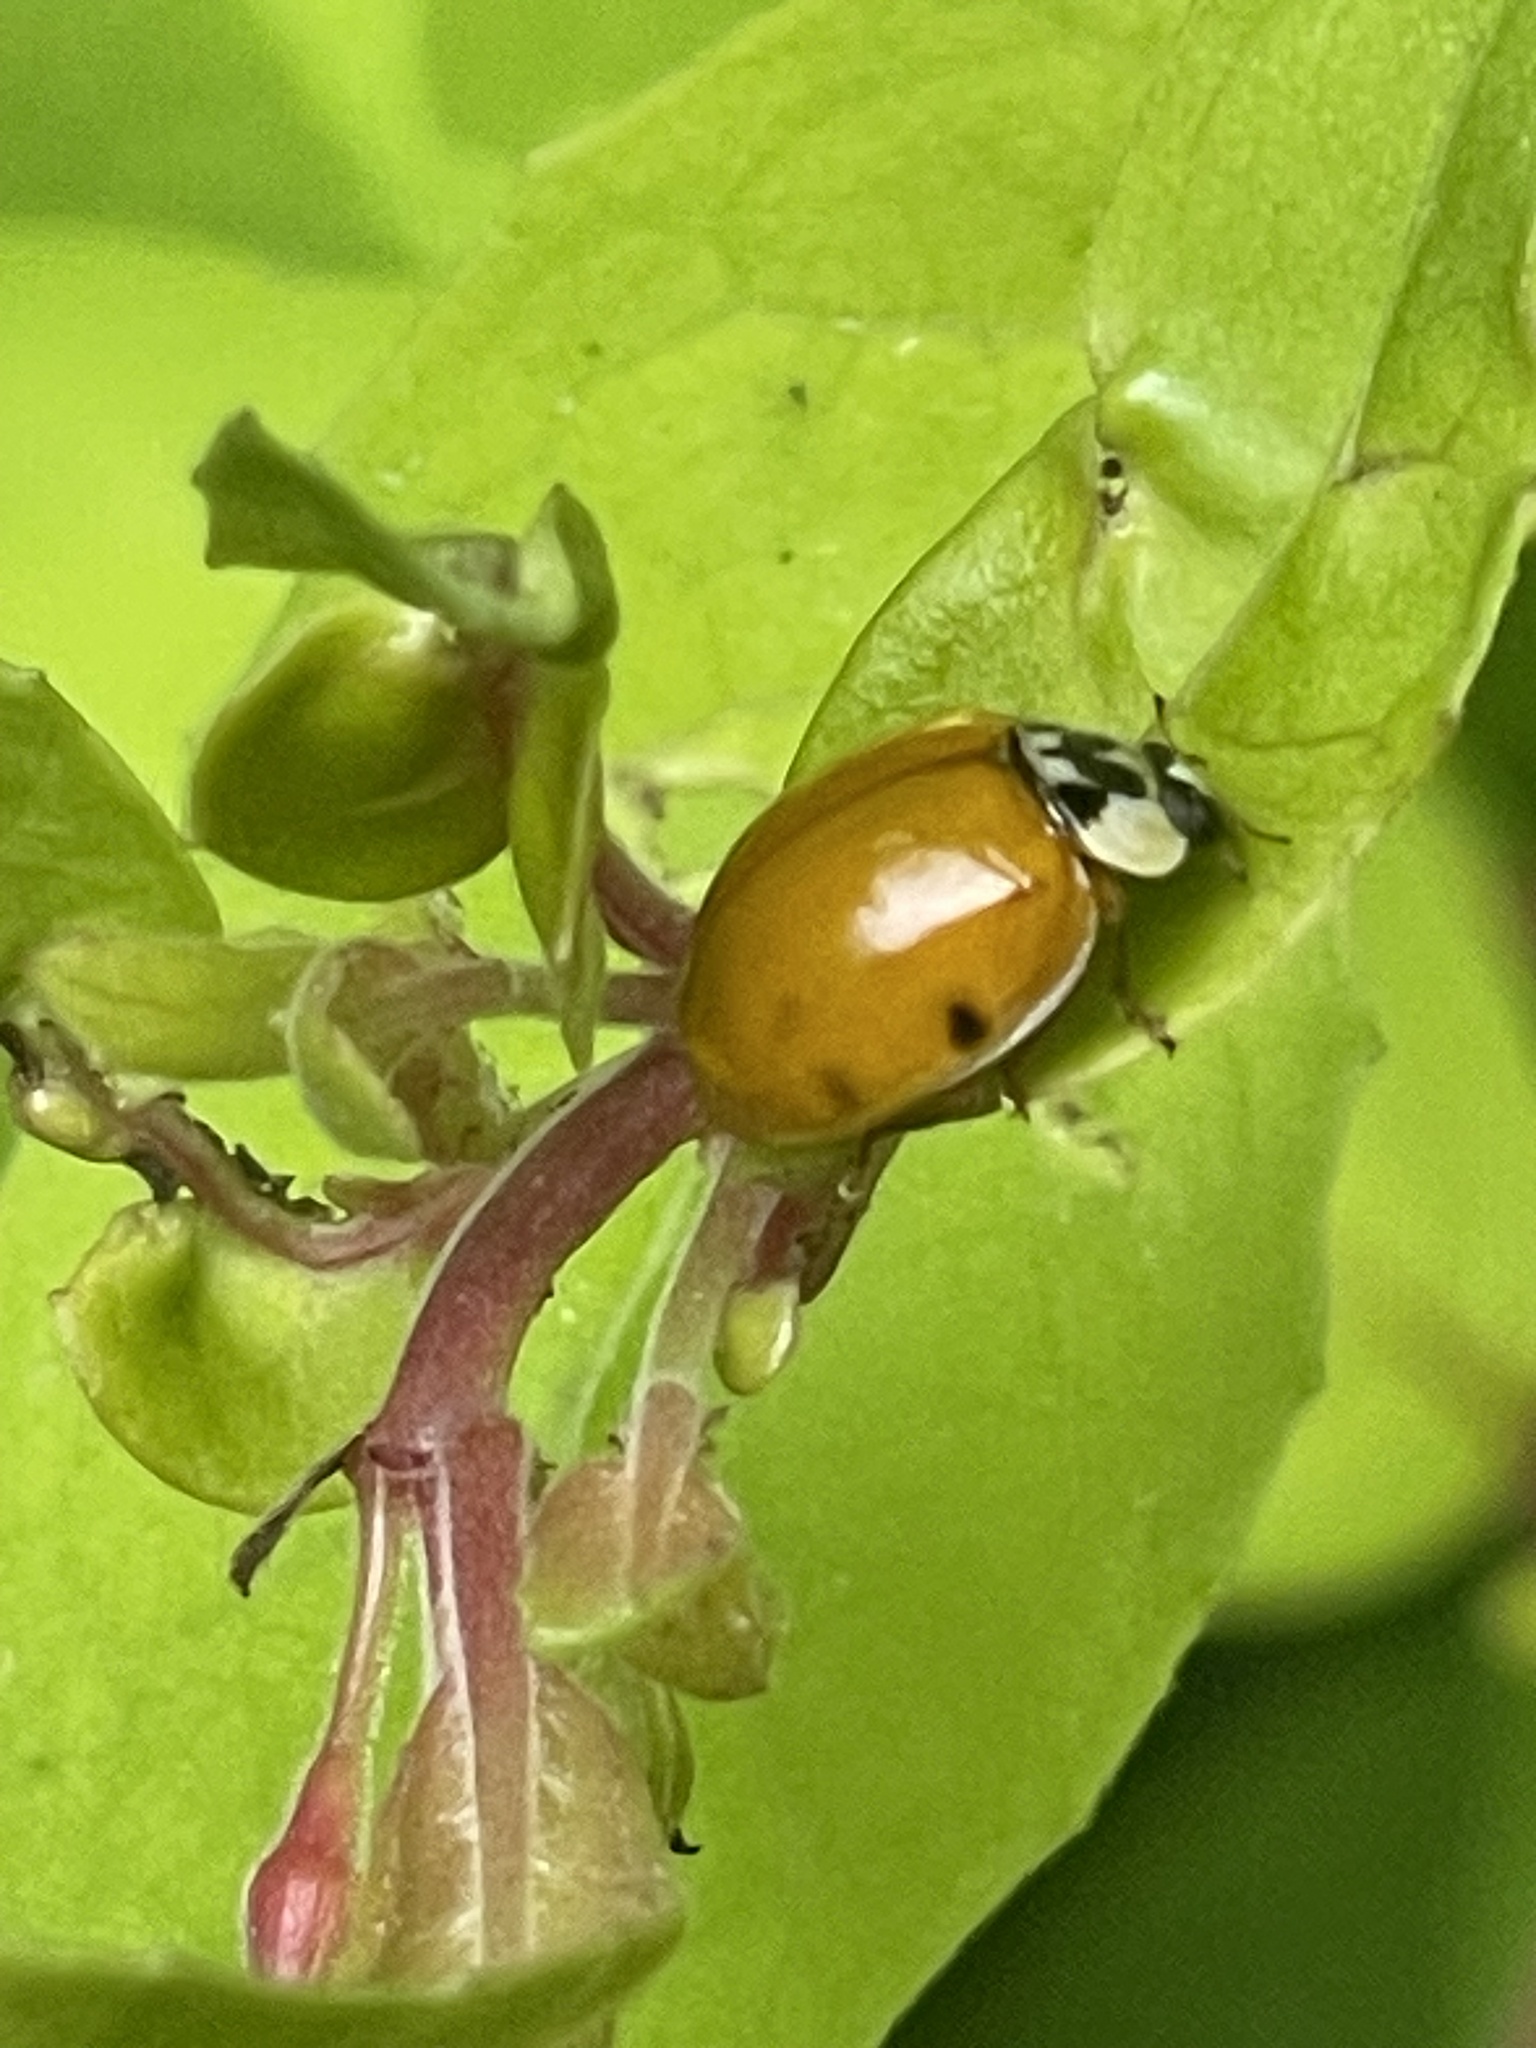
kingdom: Animalia
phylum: Arthropoda
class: Insecta
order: Coleoptera
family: Coccinellidae
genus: Harmonia
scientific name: Harmonia axyridis
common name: Harlequin ladybird
